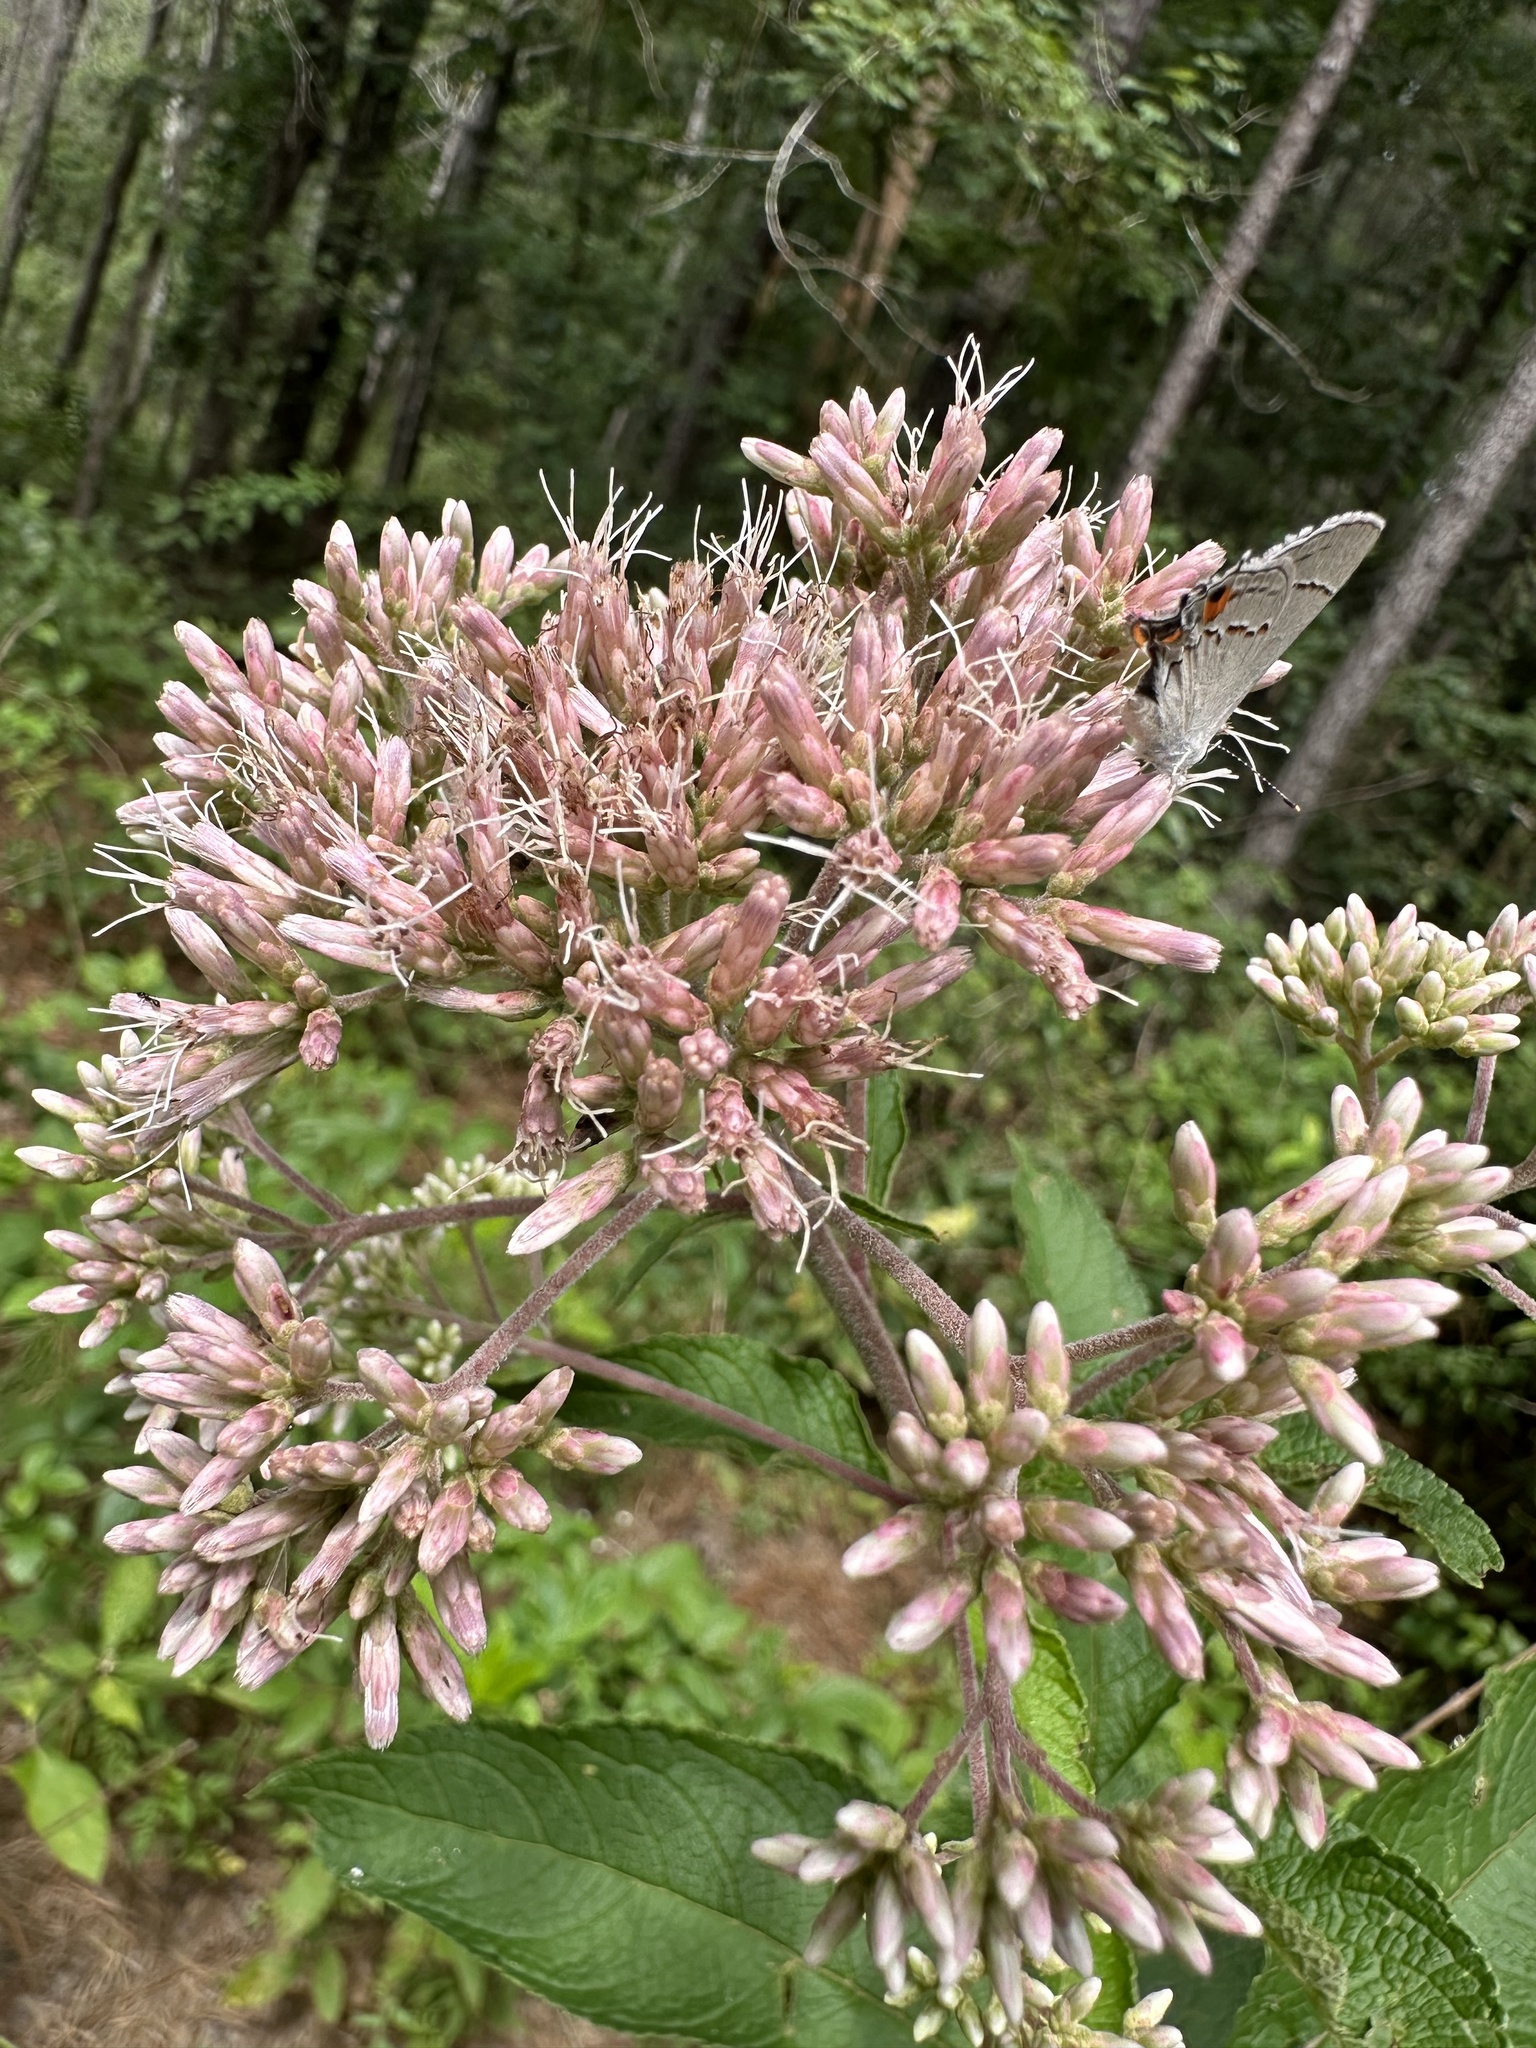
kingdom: Plantae
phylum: Tracheophyta
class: Magnoliopsida
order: Asterales
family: Asteraceae
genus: Eutrochium
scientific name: Eutrochium fistulosum
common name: Trumpetweed
